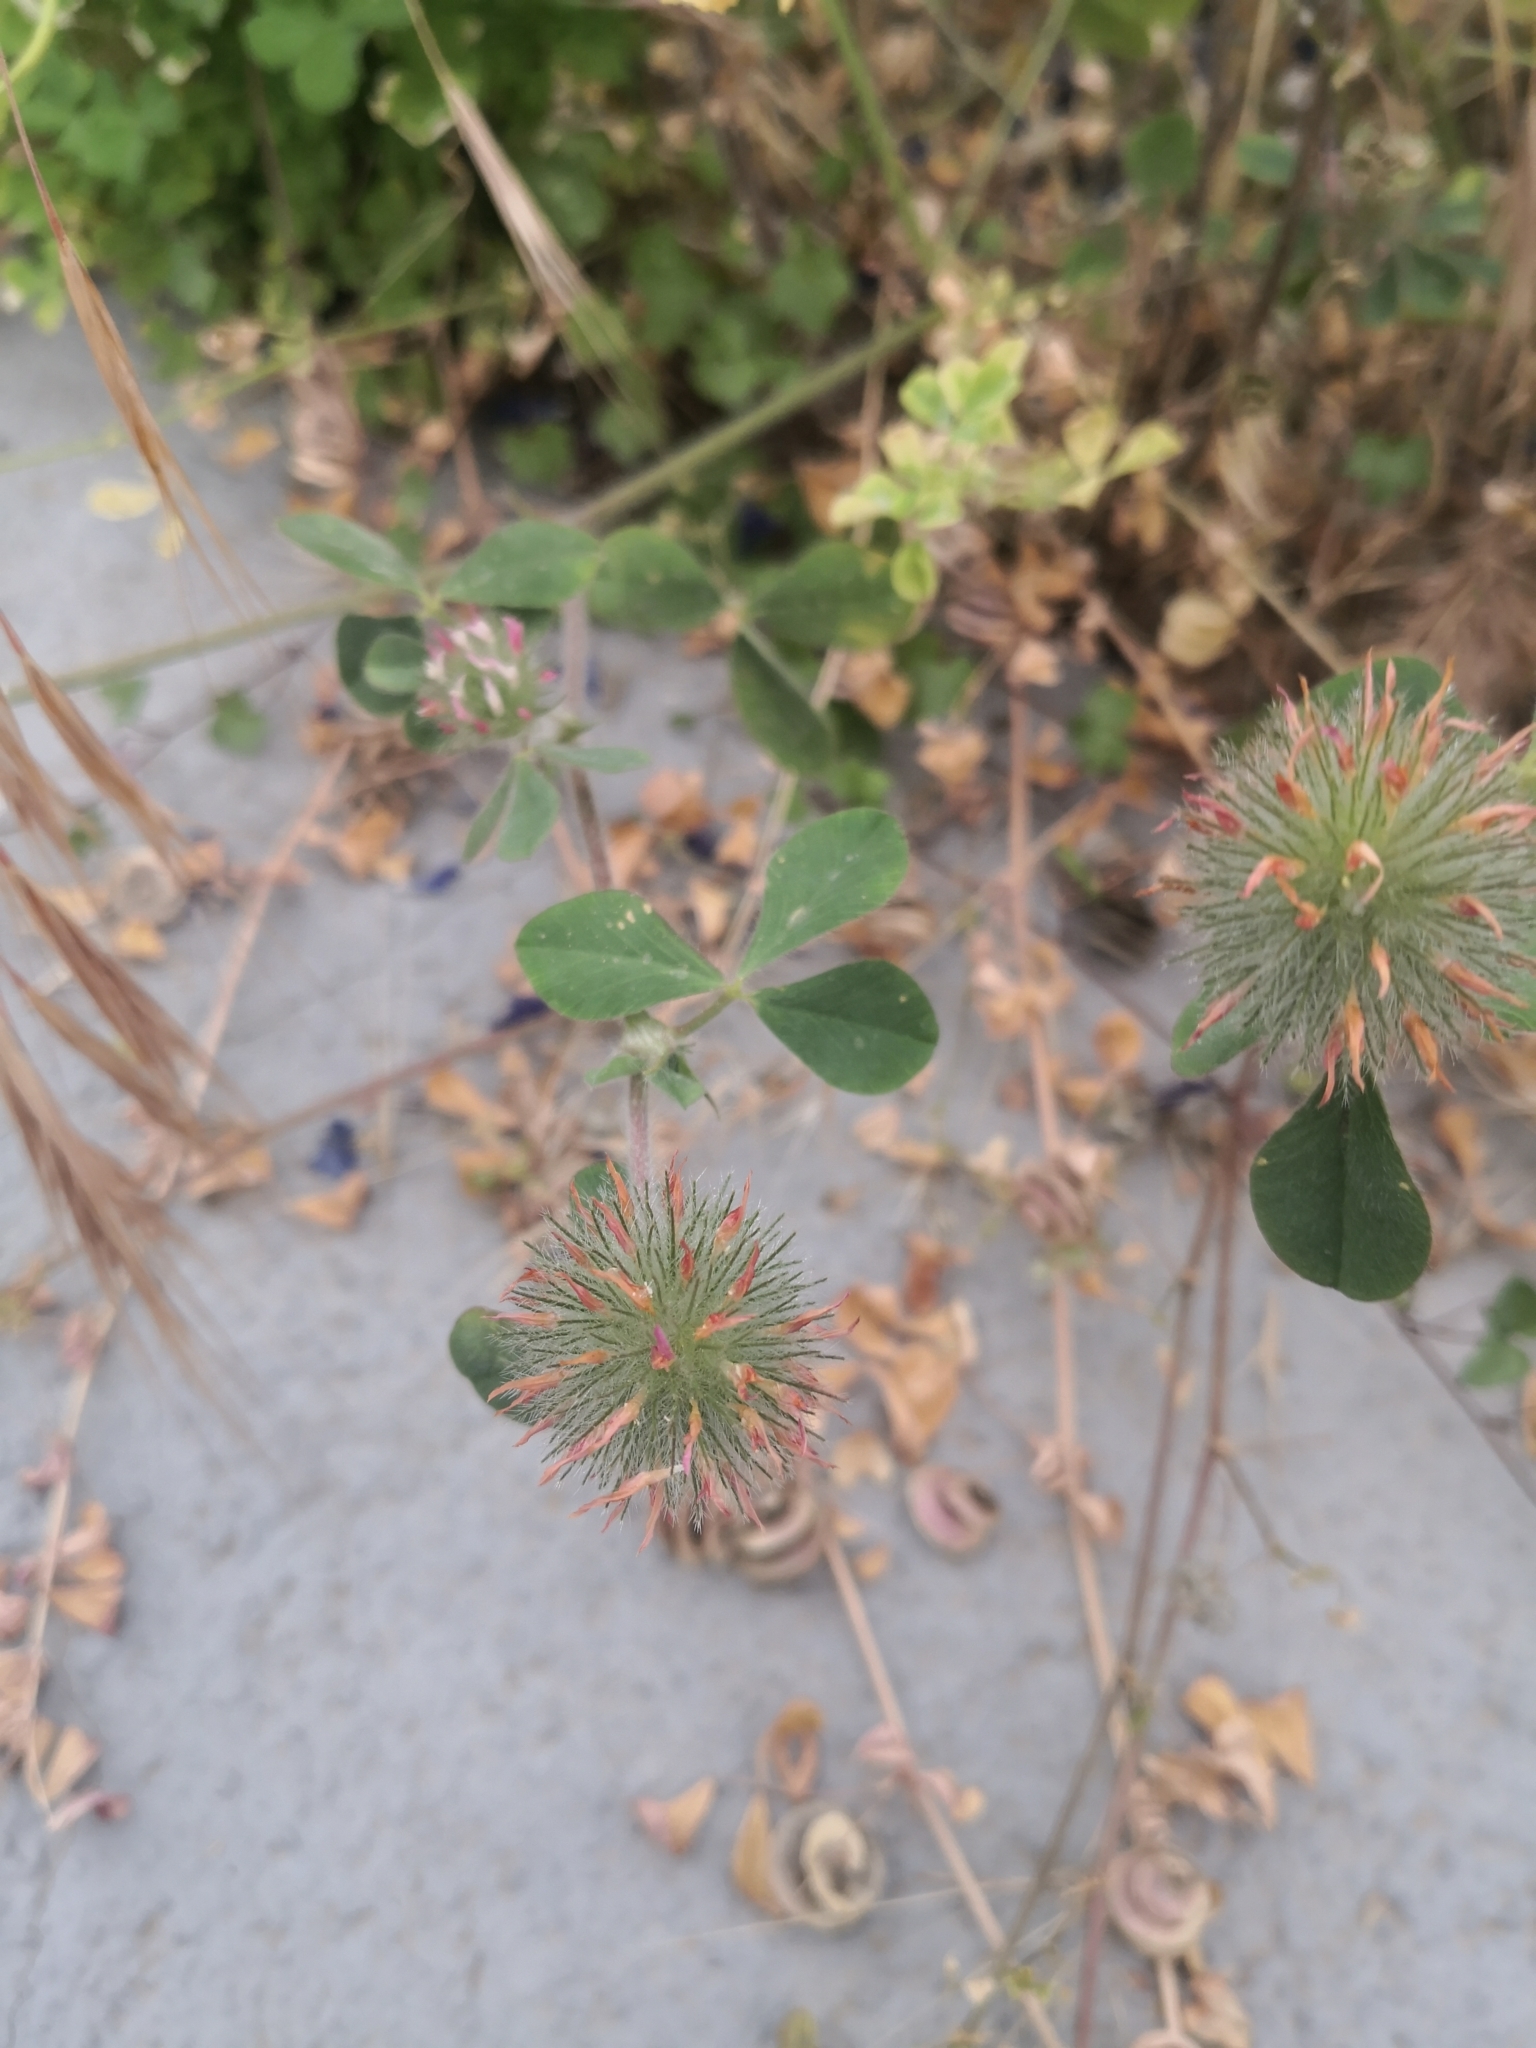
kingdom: Plantae
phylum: Tracheophyta
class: Magnoliopsida
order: Fabales
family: Fabaceae
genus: Trifolium
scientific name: Trifolium hirtum
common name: Rose clover
